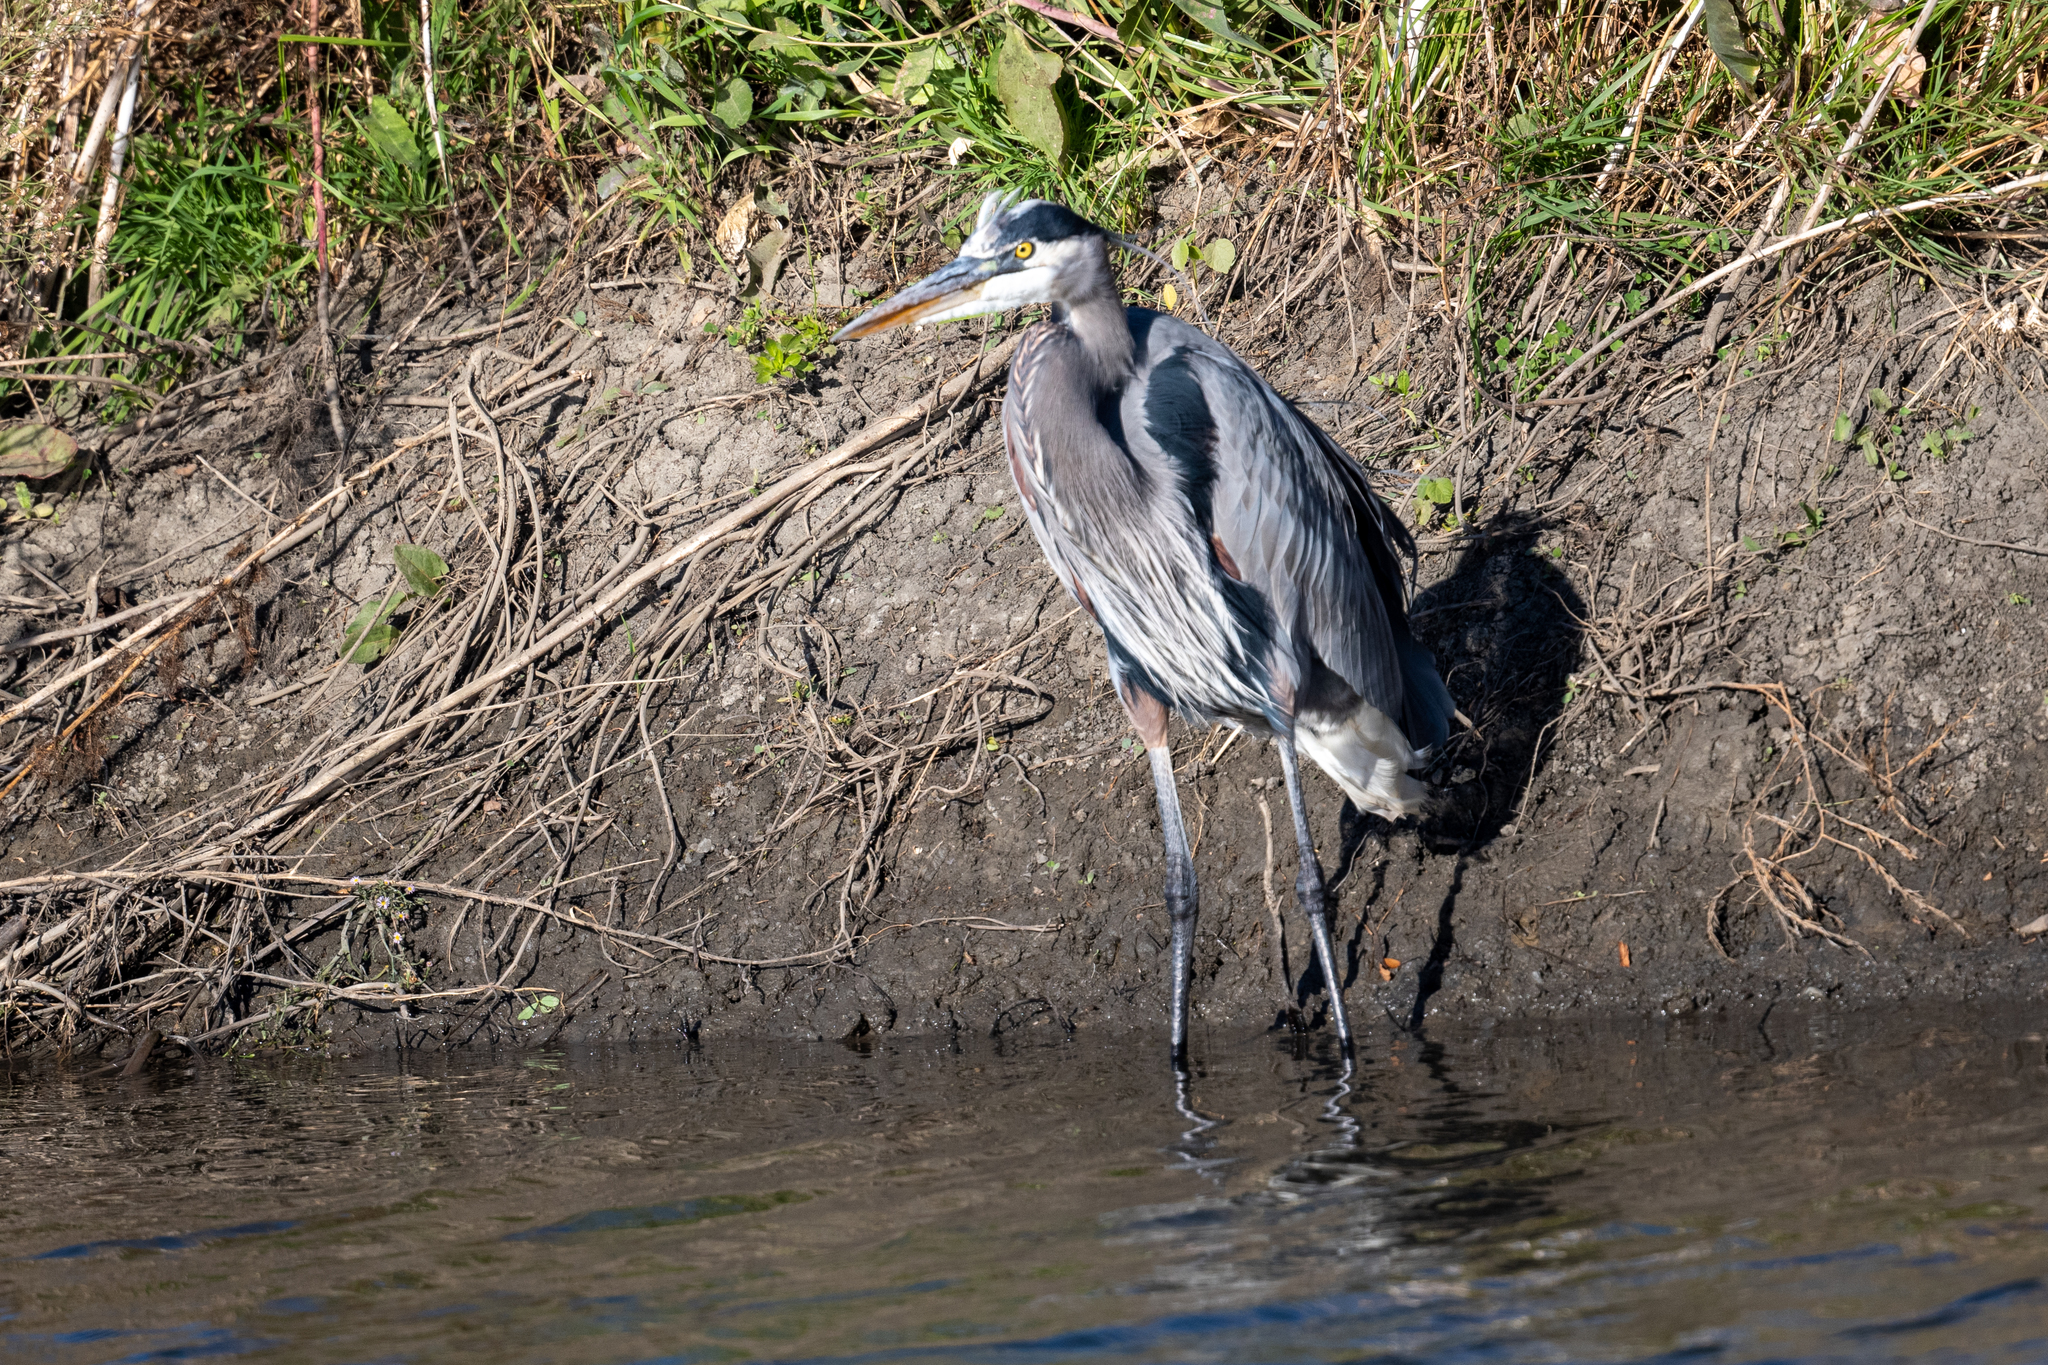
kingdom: Animalia
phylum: Chordata
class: Aves
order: Pelecaniformes
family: Ardeidae
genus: Ardea
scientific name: Ardea herodias
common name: Great blue heron
